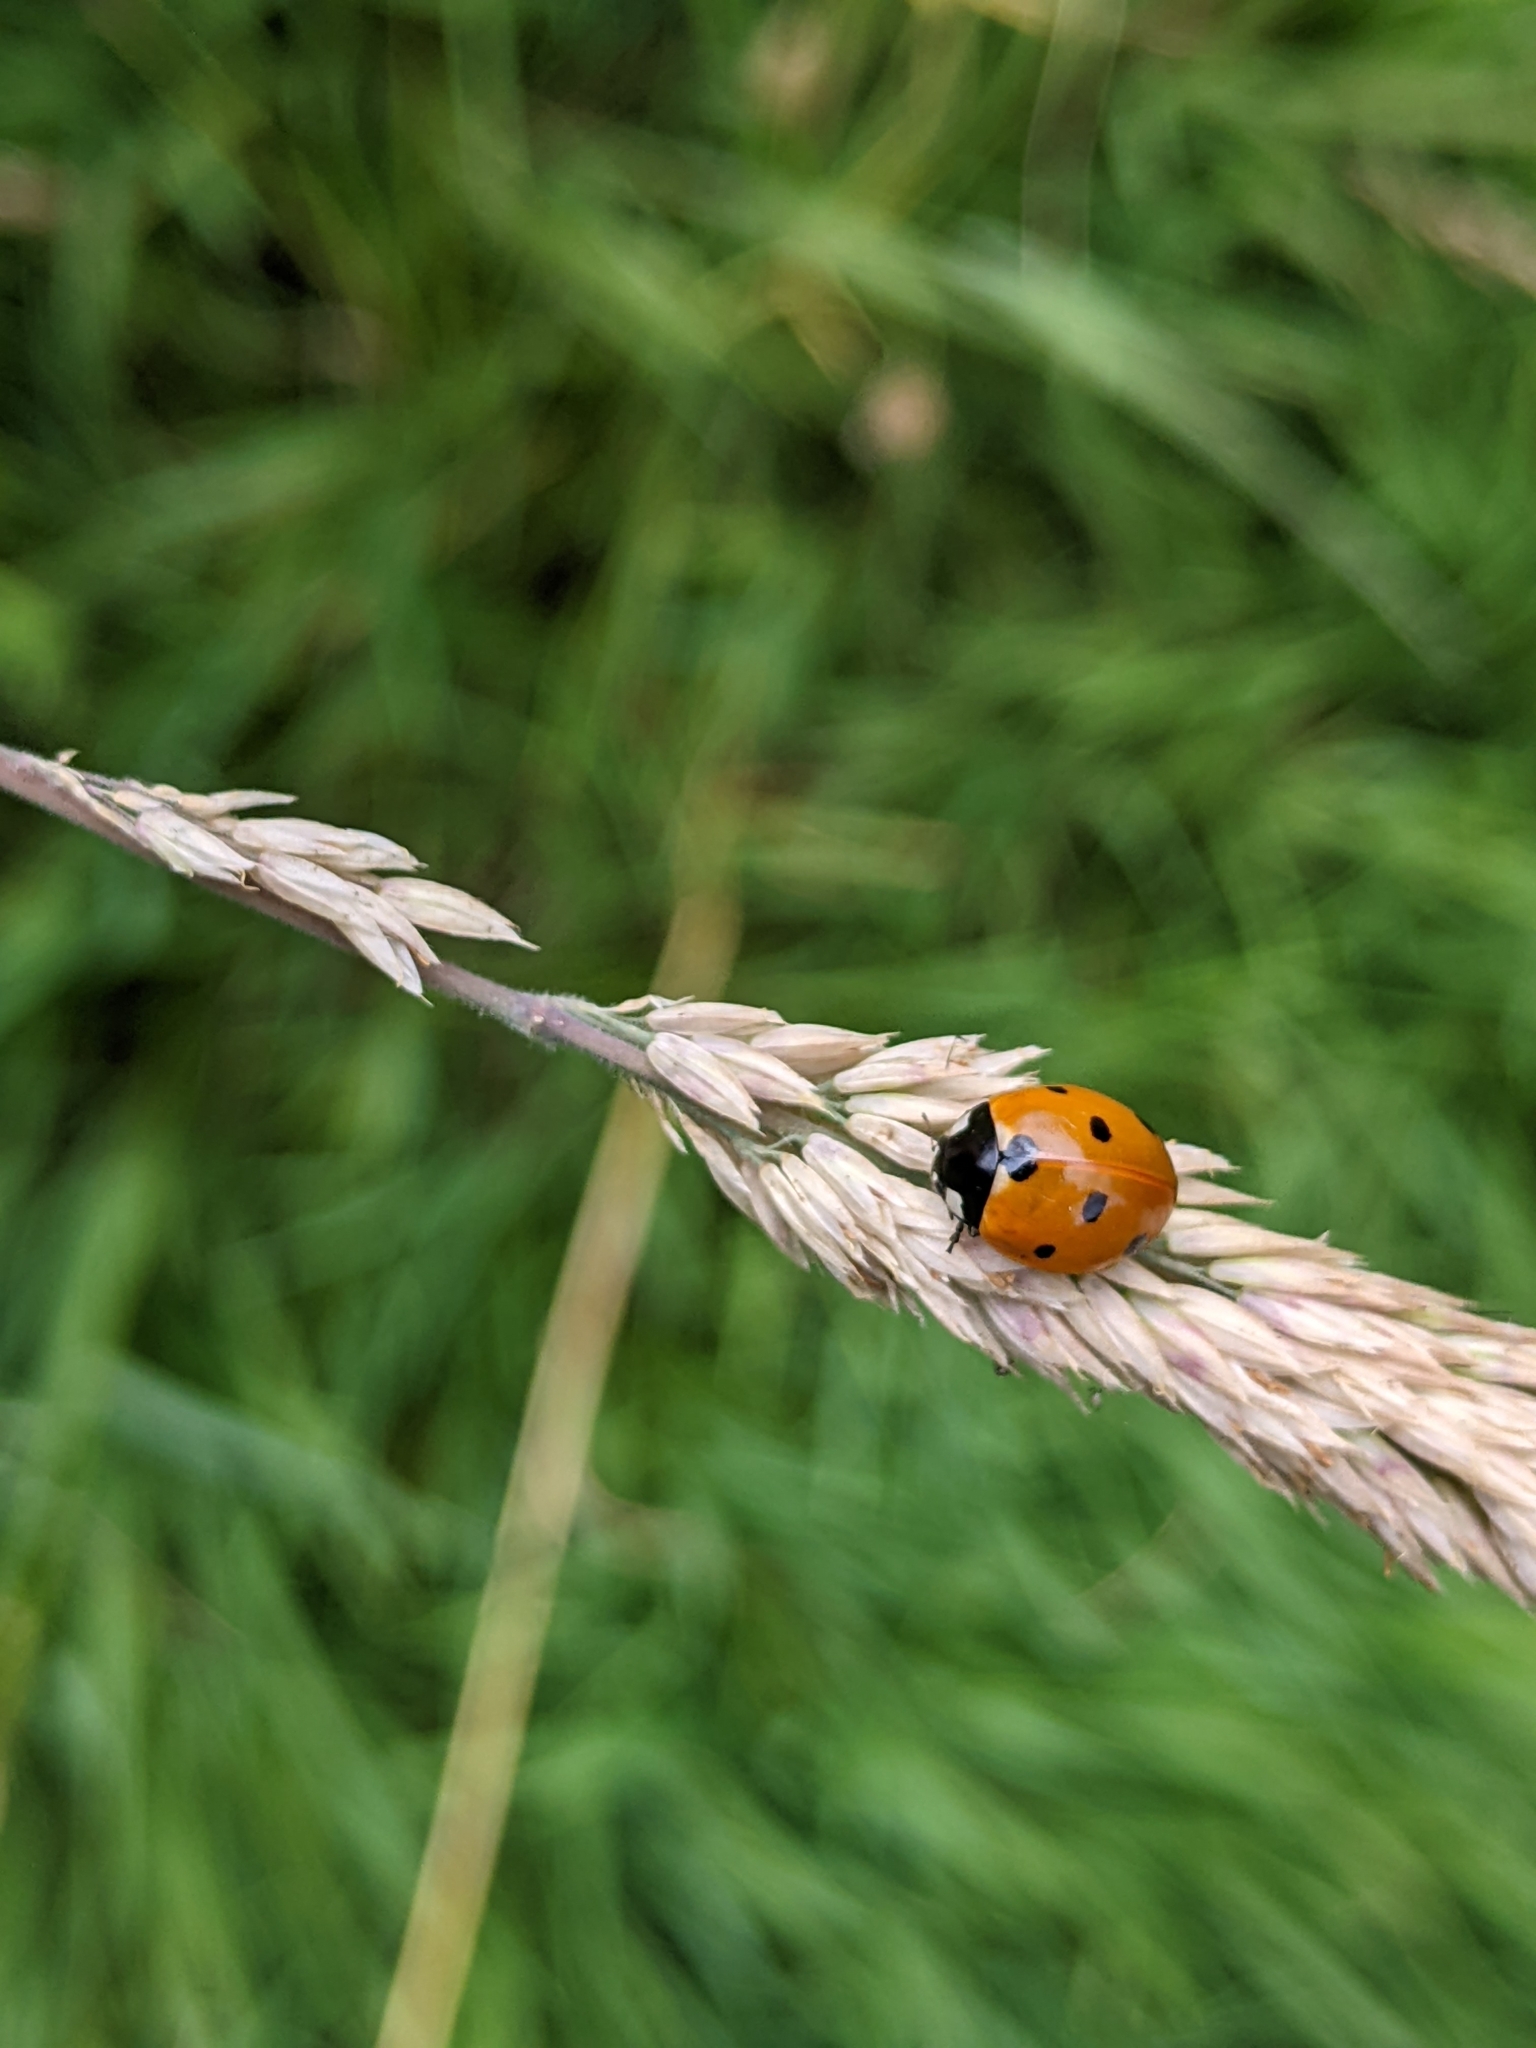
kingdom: Animalia
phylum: Arthropoda
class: Insecta
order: Coleoptera
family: Coccinellidae
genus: Coccinella
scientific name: Coccinella septempunctata
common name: Sevenspotted lady beetle
